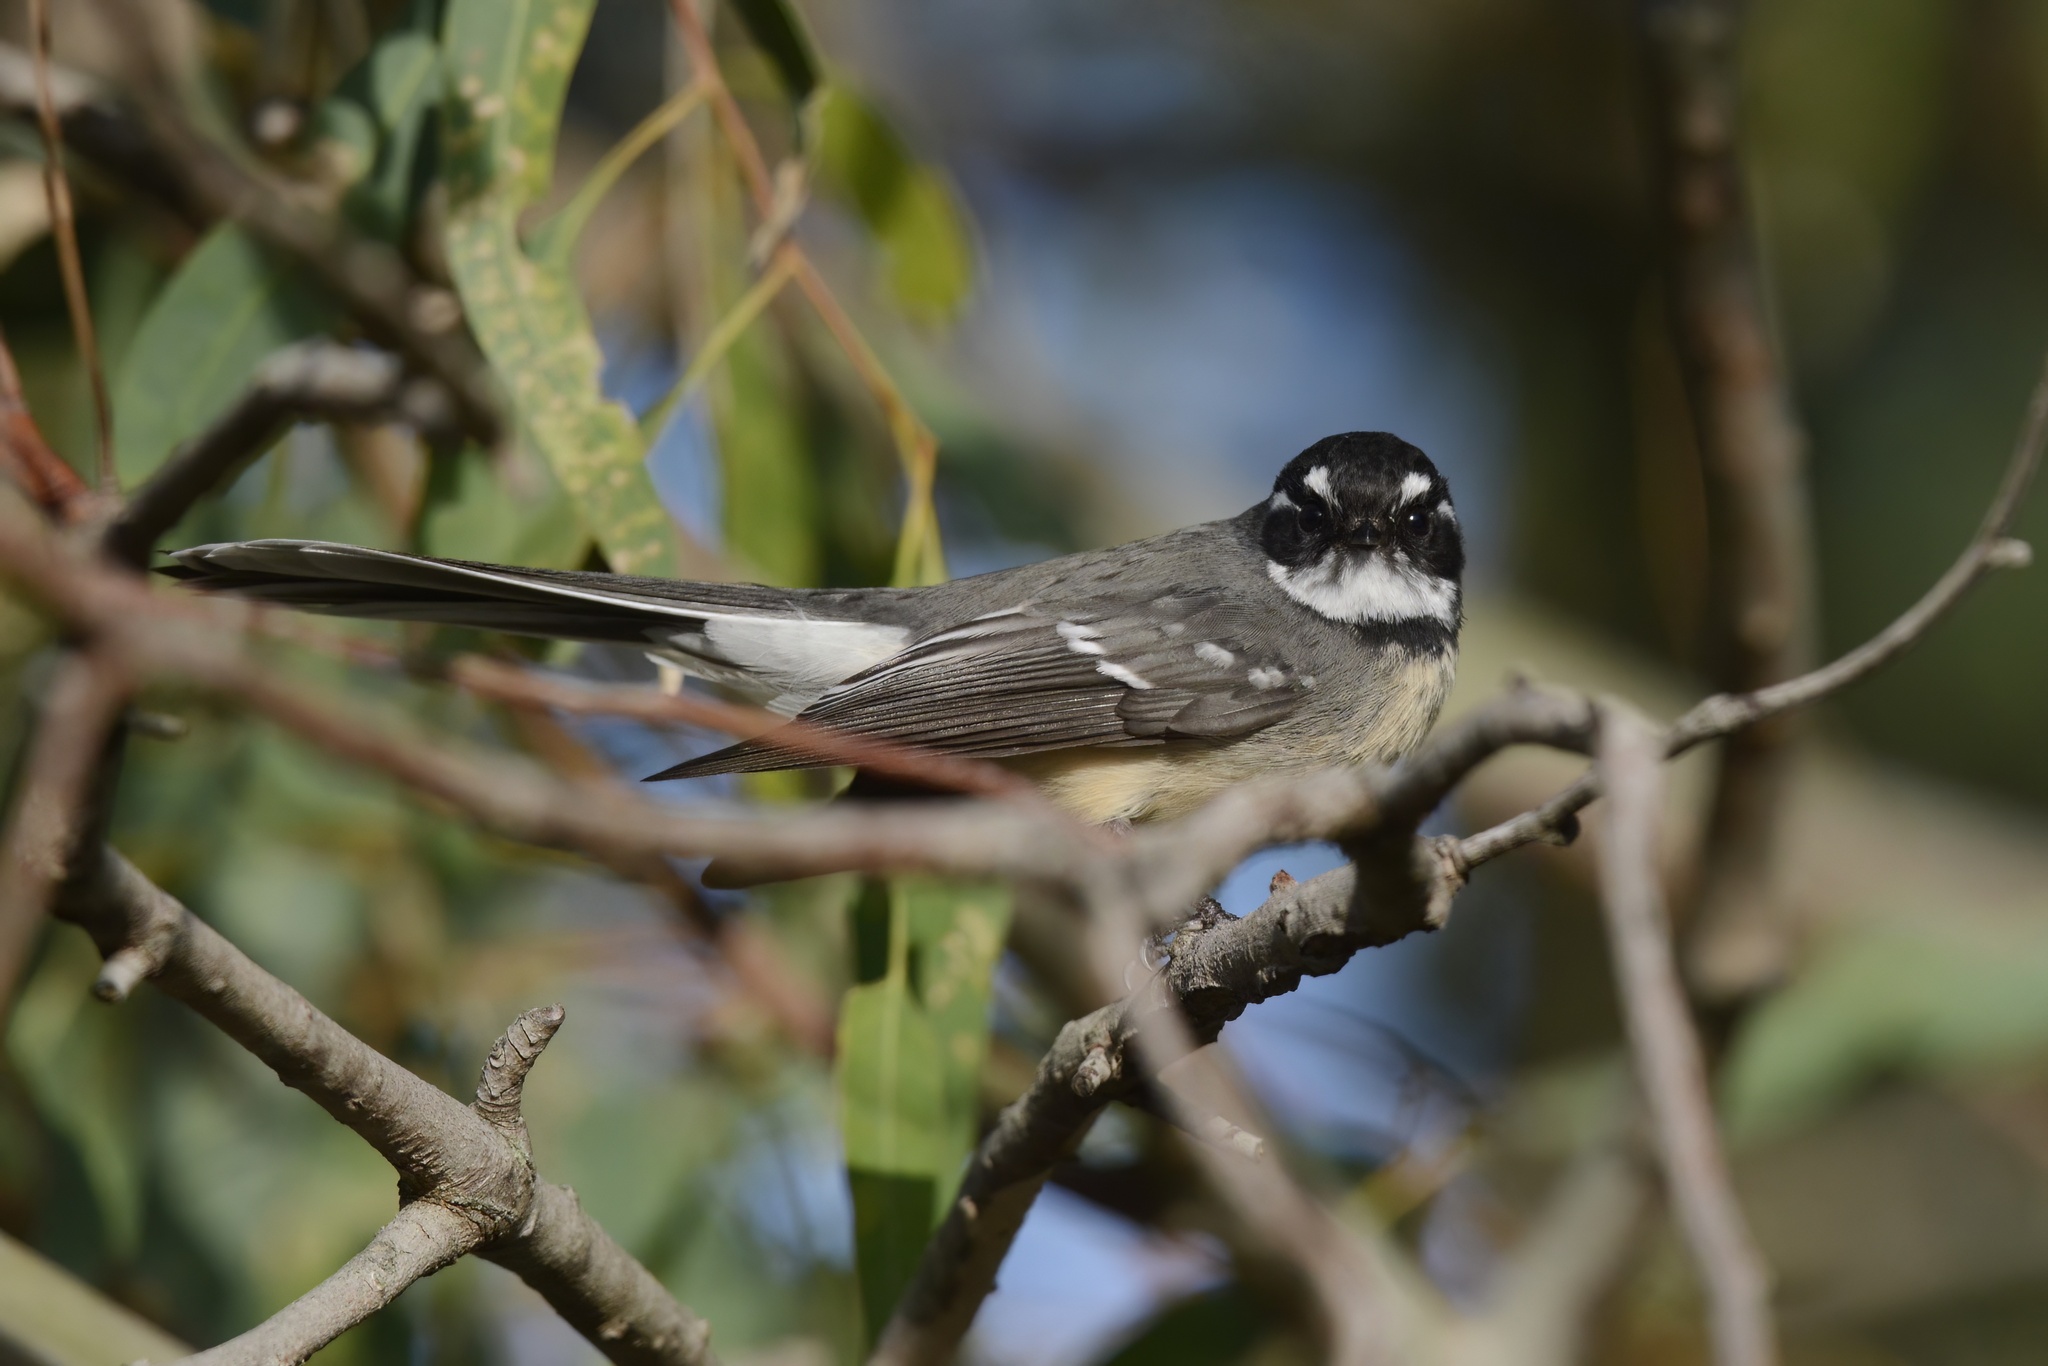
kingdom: Animalia
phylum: Chordata
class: Aves
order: Passeriformes
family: Rhipiduridae
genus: Rhipidura
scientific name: Rhipidura albiscapa
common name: Grey fantail
